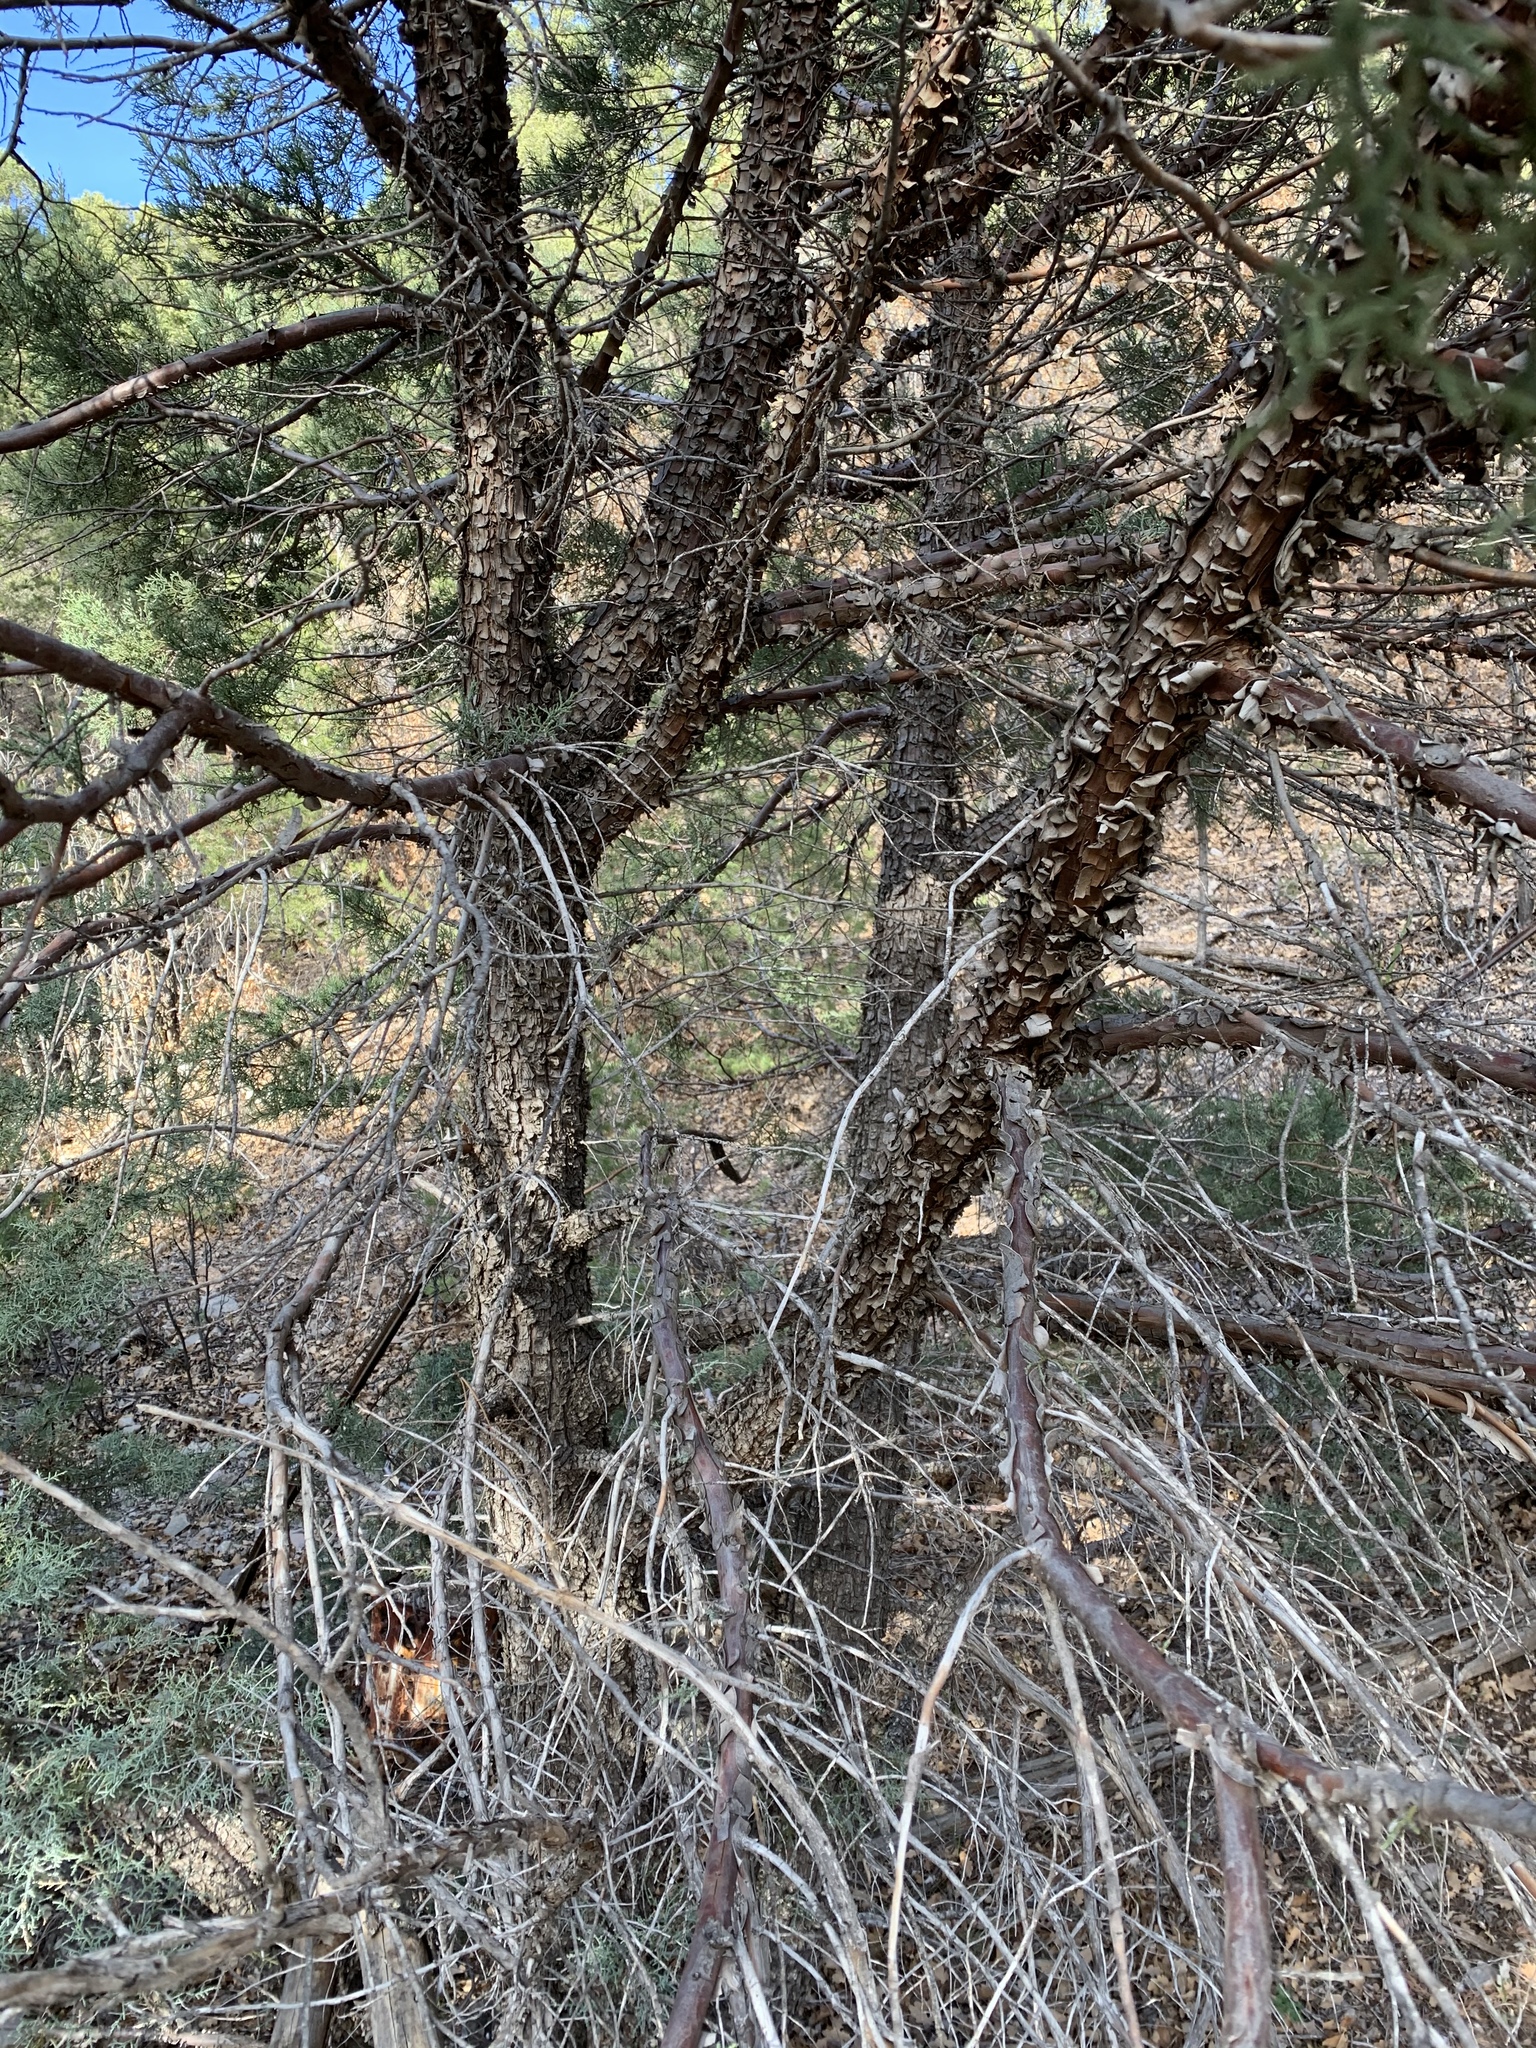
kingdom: Plantae
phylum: Tracheophyta
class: Pinopsida
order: Pinales
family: Cupressaceae
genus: Juniperus
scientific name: Juniperus deppeana
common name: Alligator juniper
